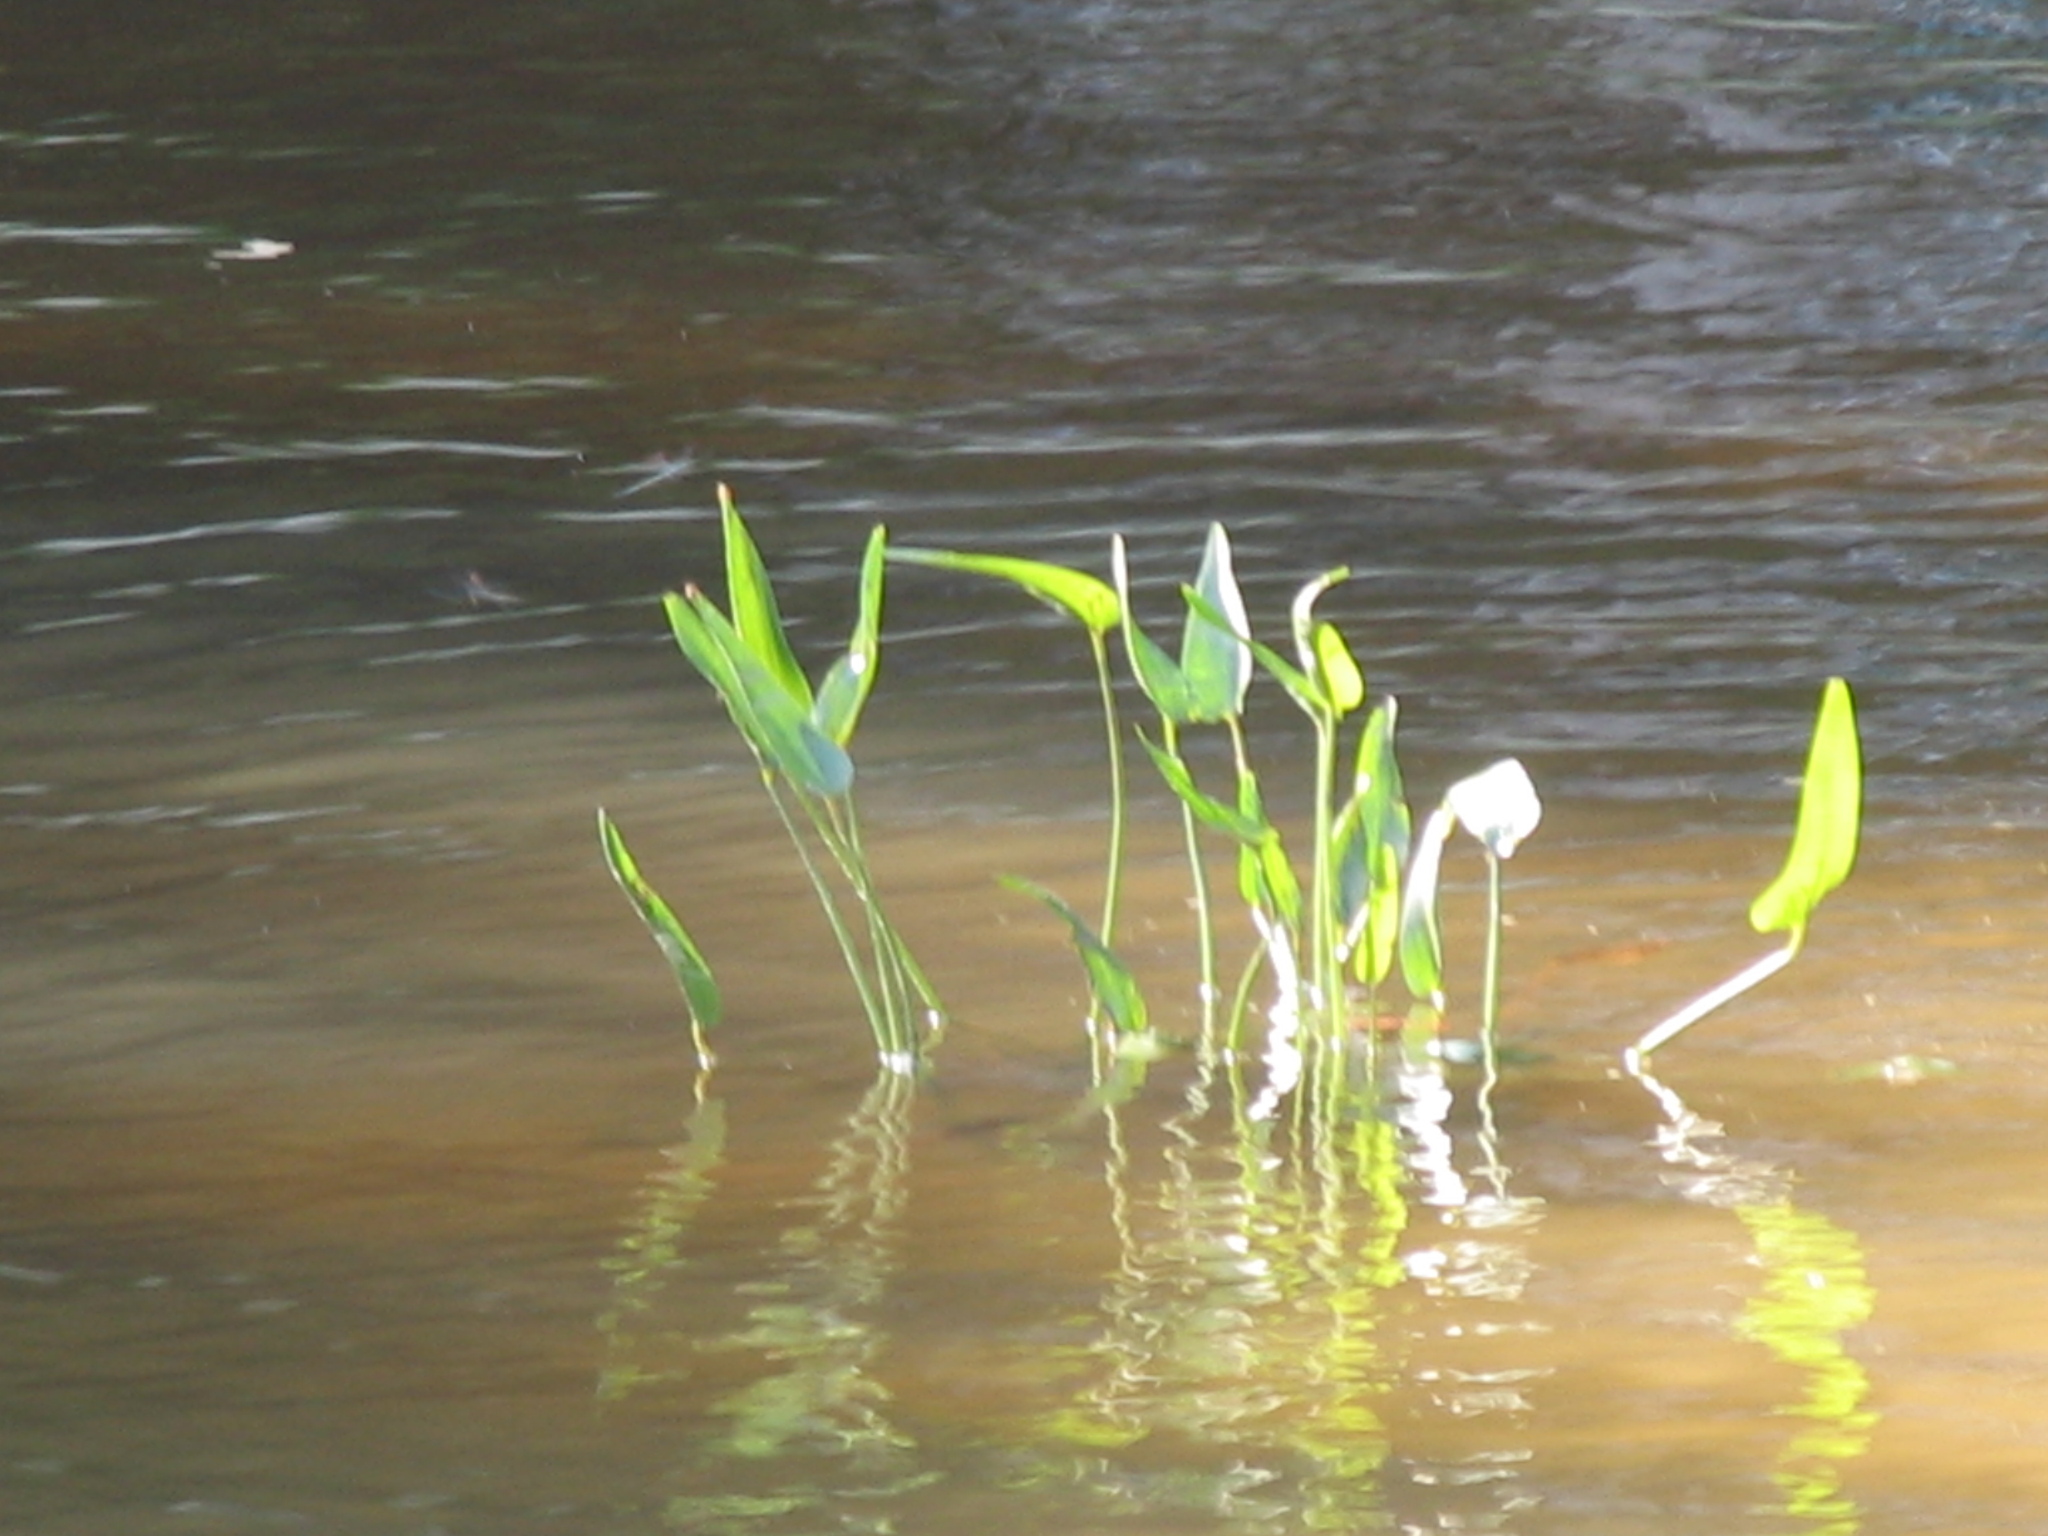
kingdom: Plantae
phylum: Tracheophyta
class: Liliopsida
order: Commelinales
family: Pontederiaceae
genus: Pontederia
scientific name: Pontederia cordata
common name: Pickerelweed
